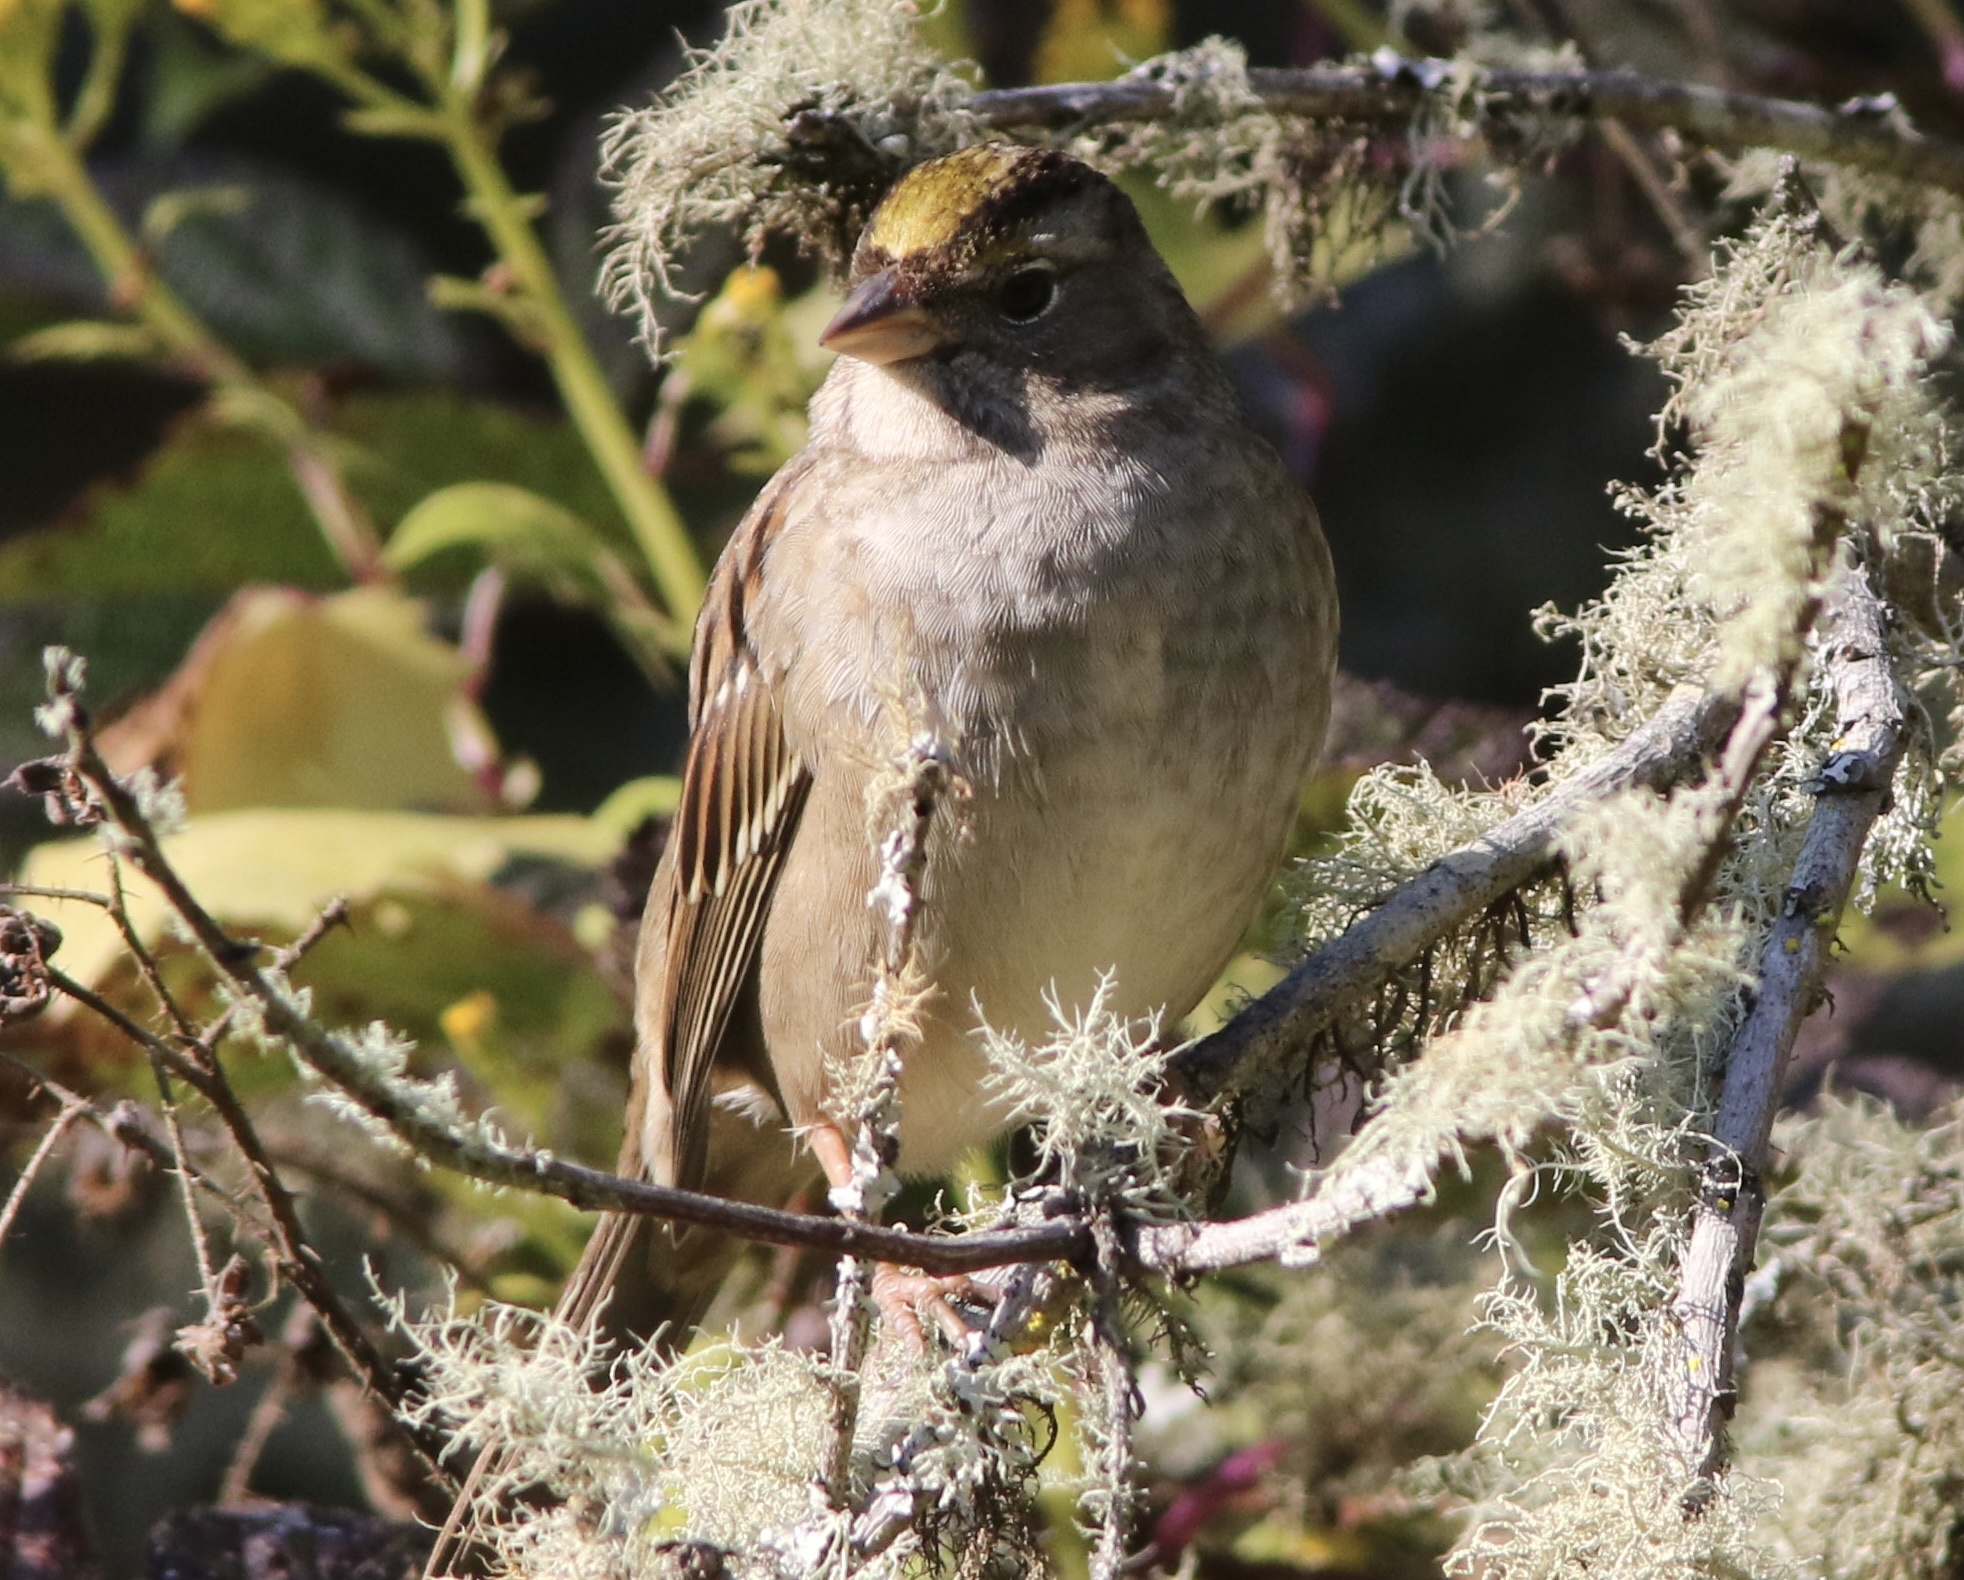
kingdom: Animalia
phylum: Chordata
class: Aves
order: Passeriformes
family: Passerellidae
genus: Zonotrichia
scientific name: Zonotrichia atricapilla
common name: Golden-crowned sparrow
